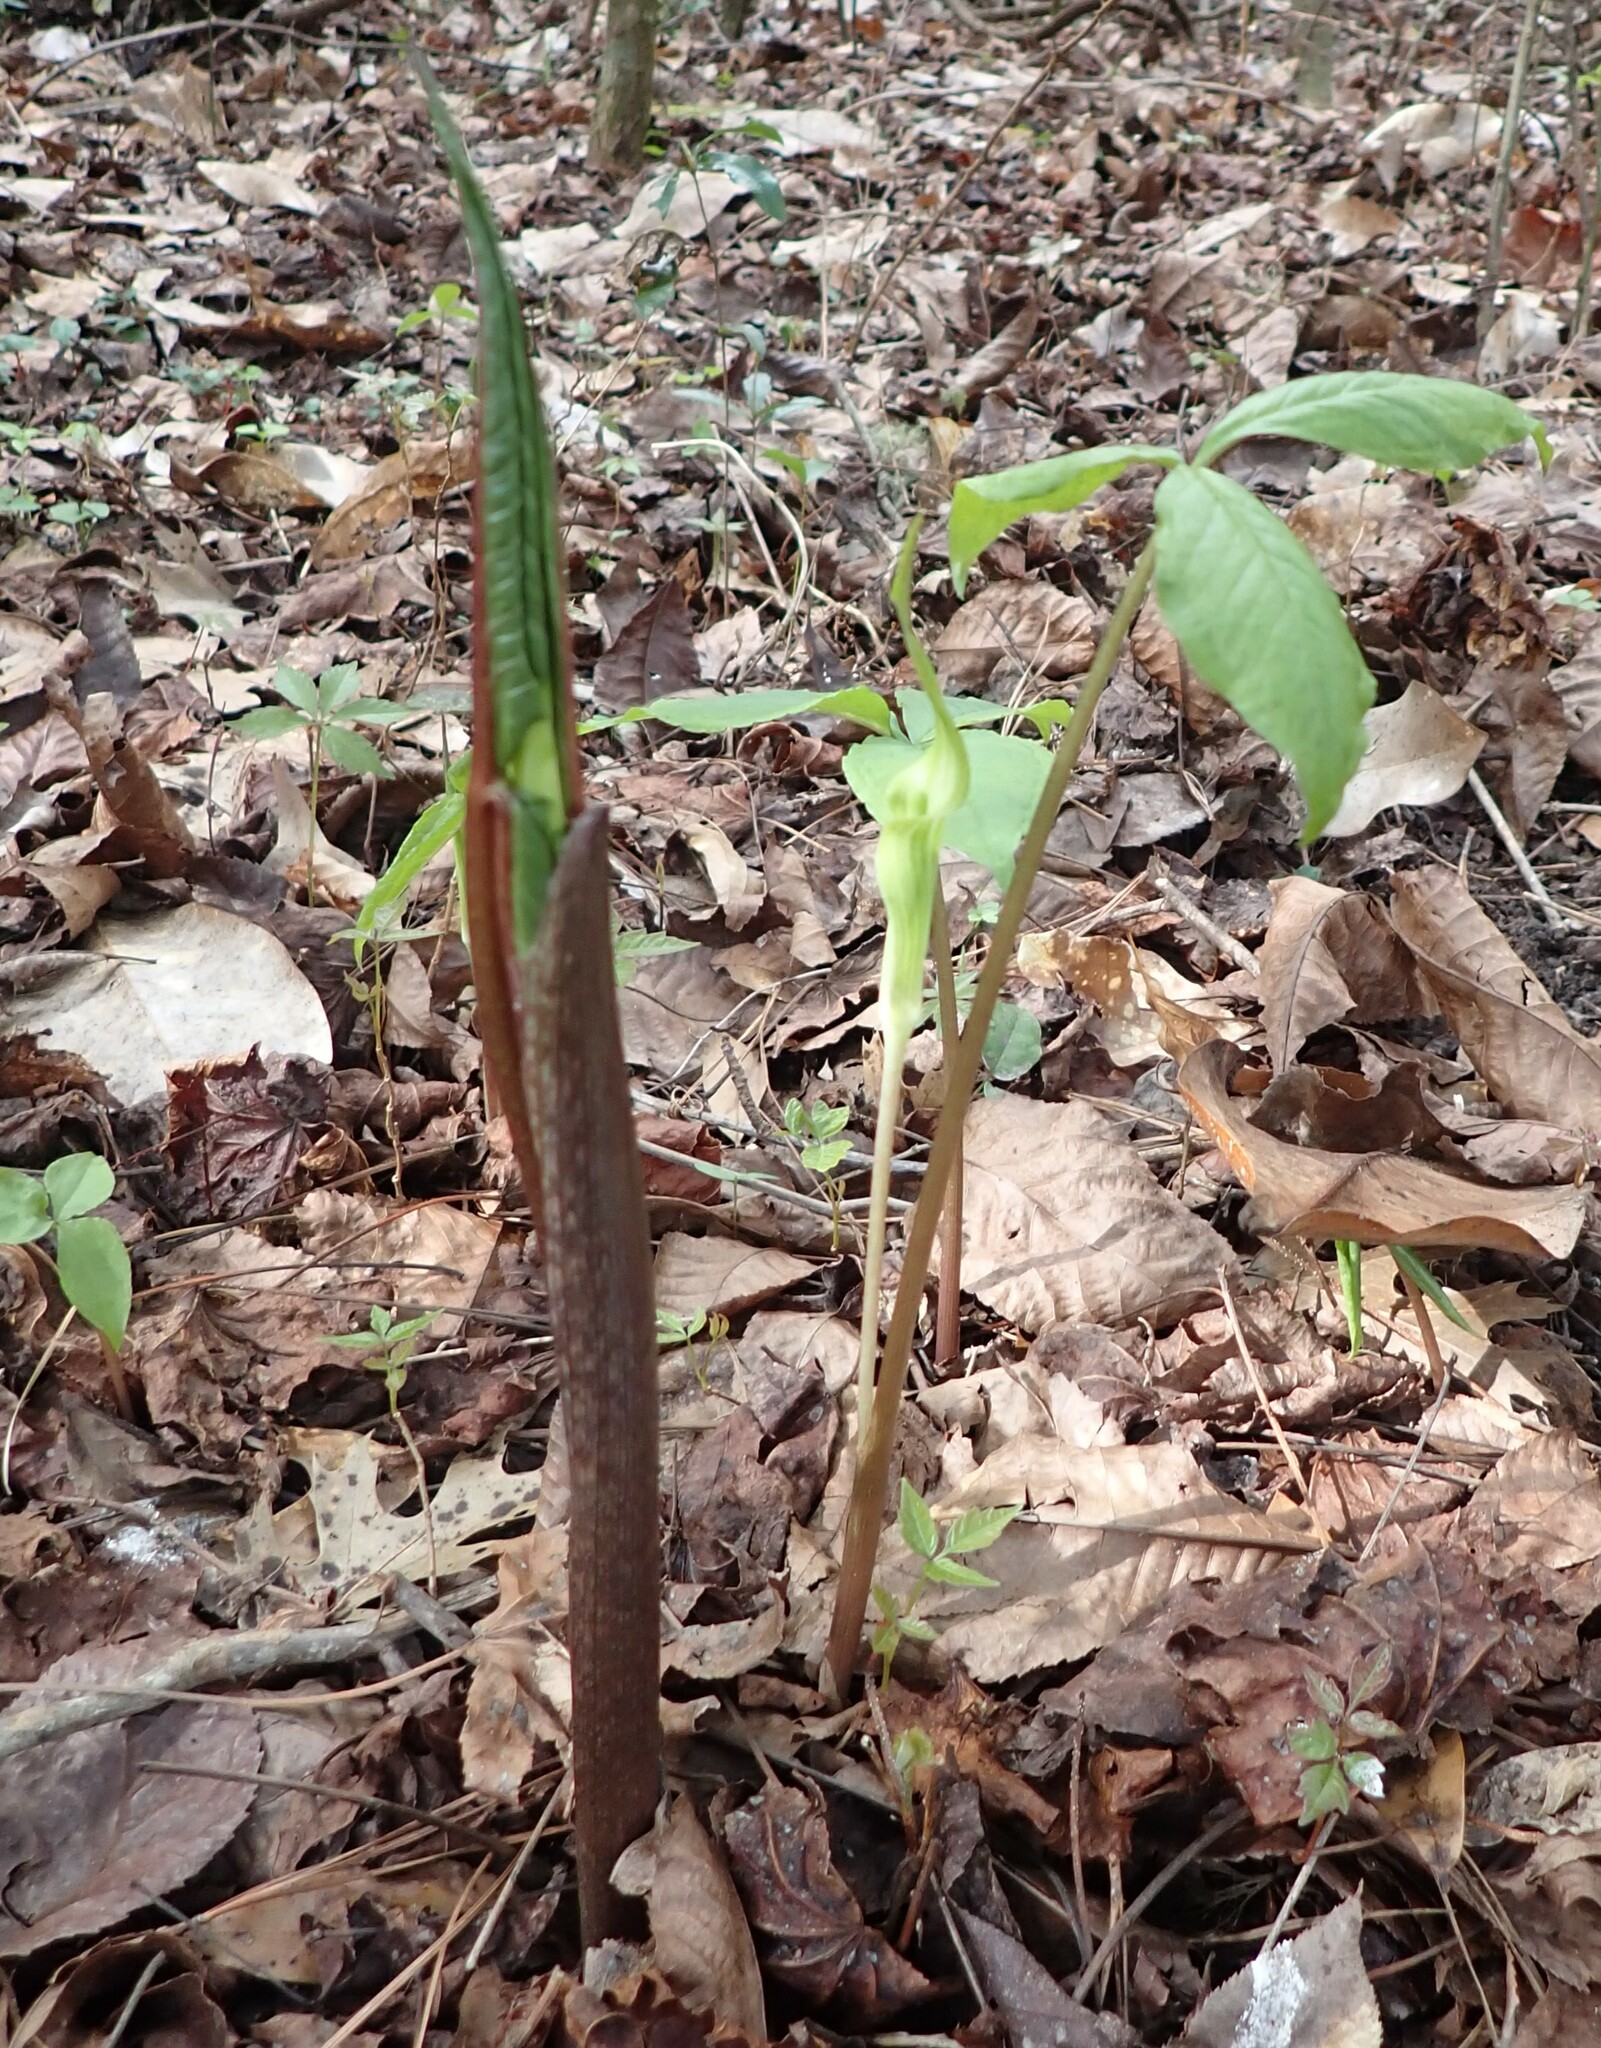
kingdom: Plantae
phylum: Tracheophyta
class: Liliopsida
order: Alismatales
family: Araceae
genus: Arisaema
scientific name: Arisaema acuminatum
